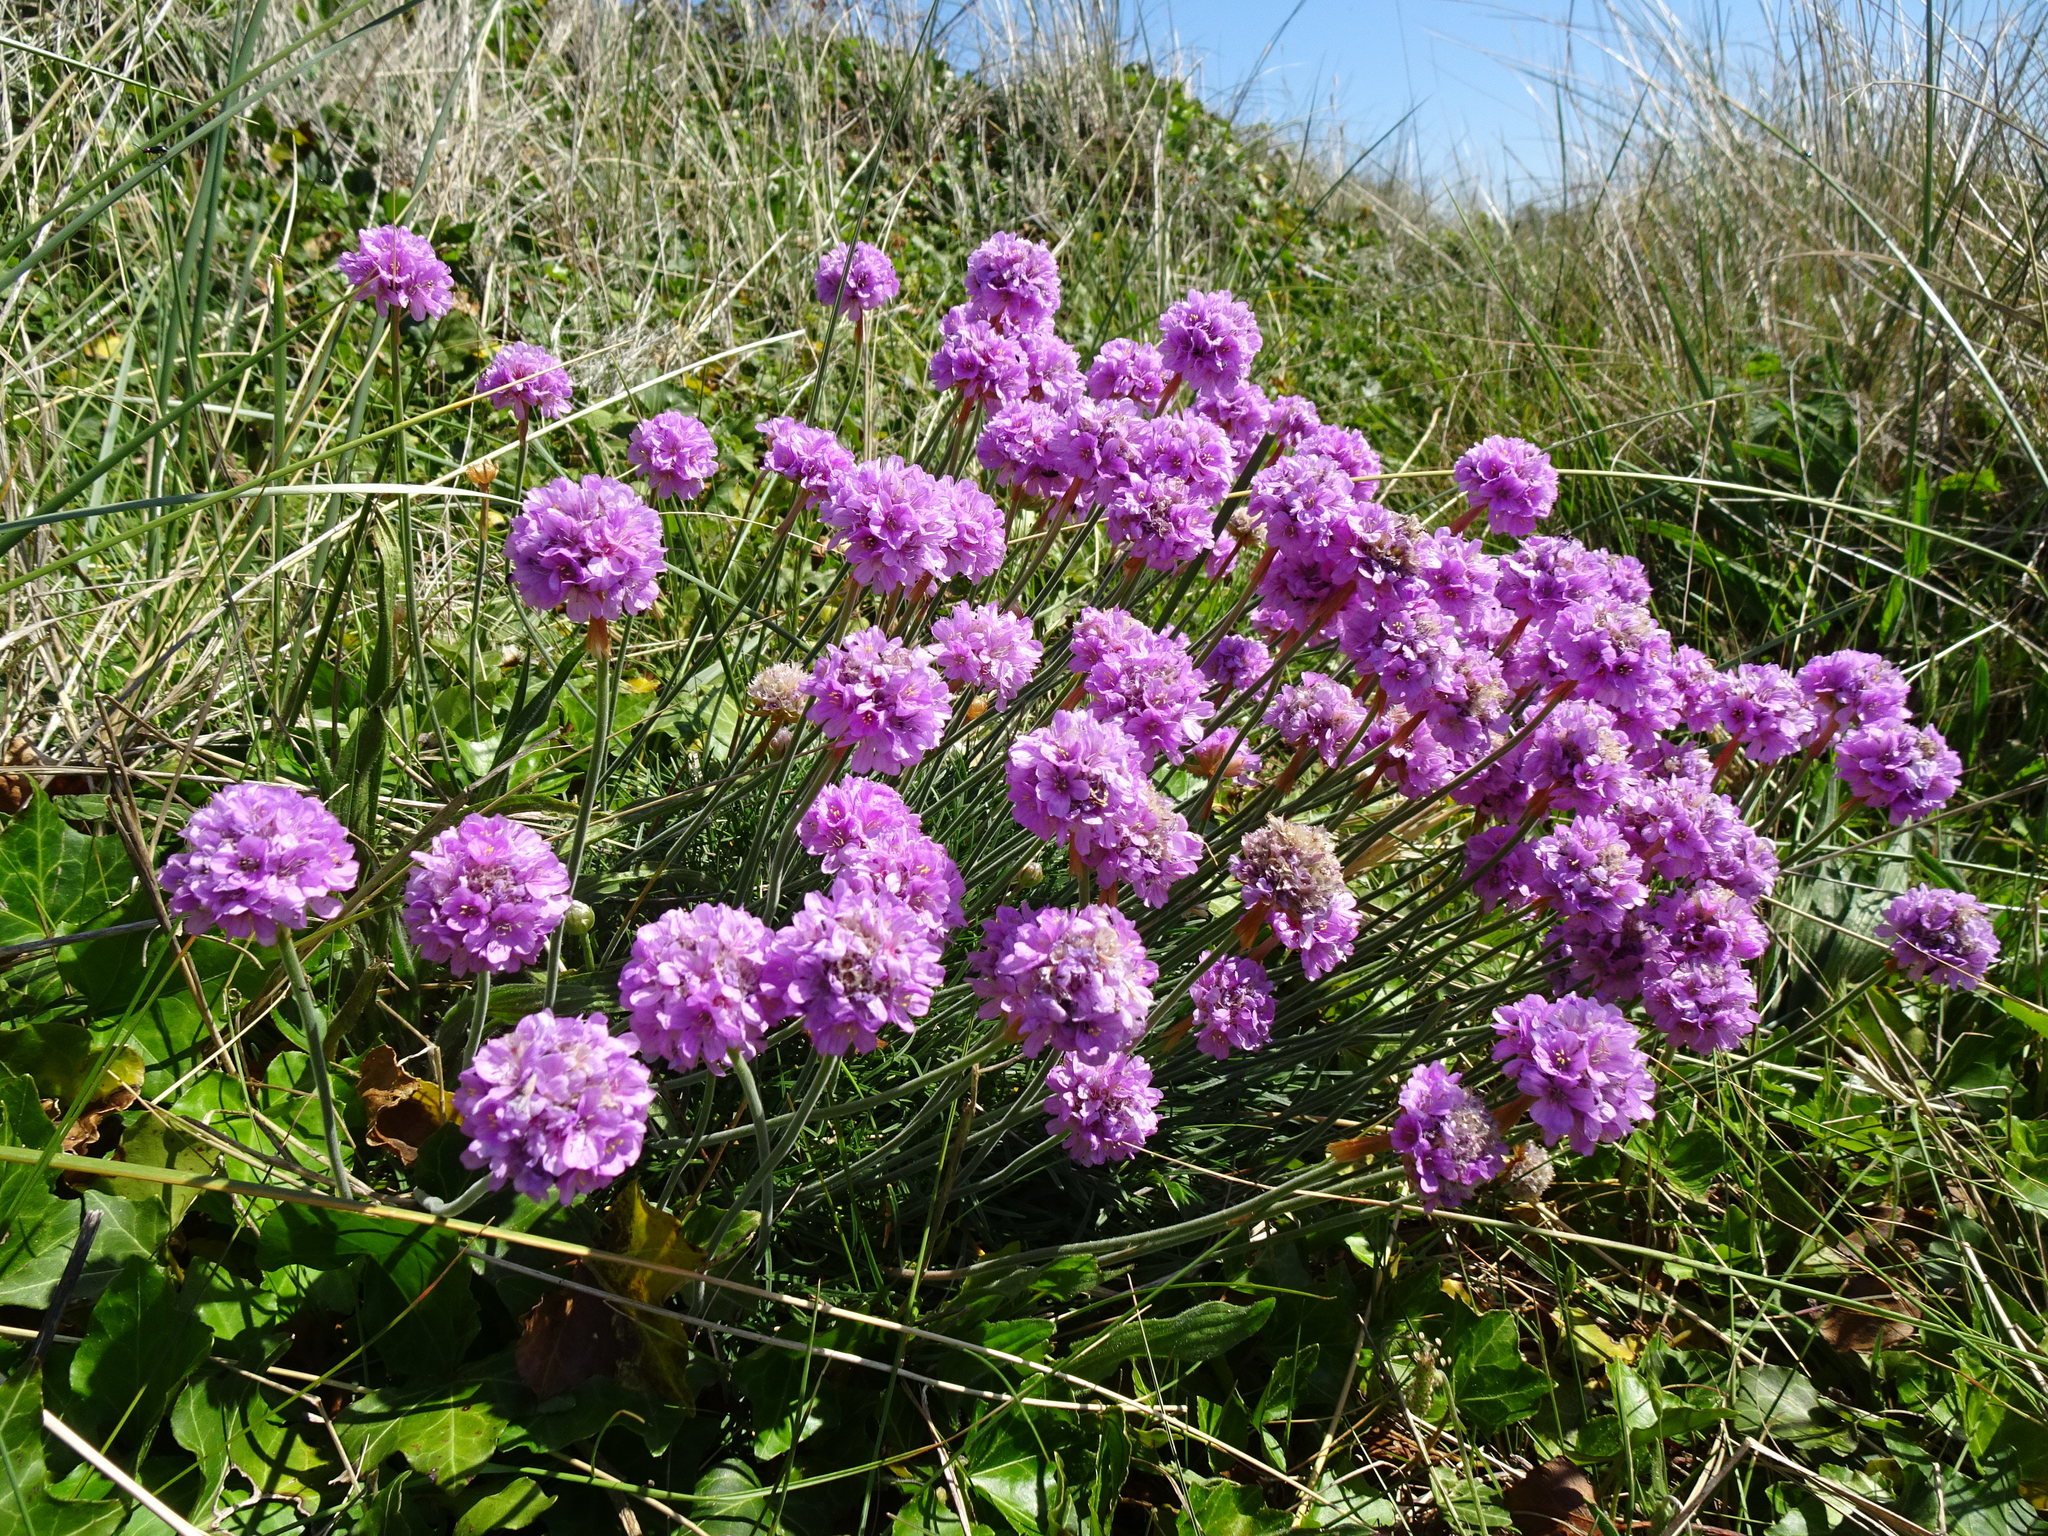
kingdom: Plantae
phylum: Tracheophyta
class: Magnoliopsida
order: Caryophyllales
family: Plumbaginaceae
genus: Armeria
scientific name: Armeria maritima
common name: Thrift
